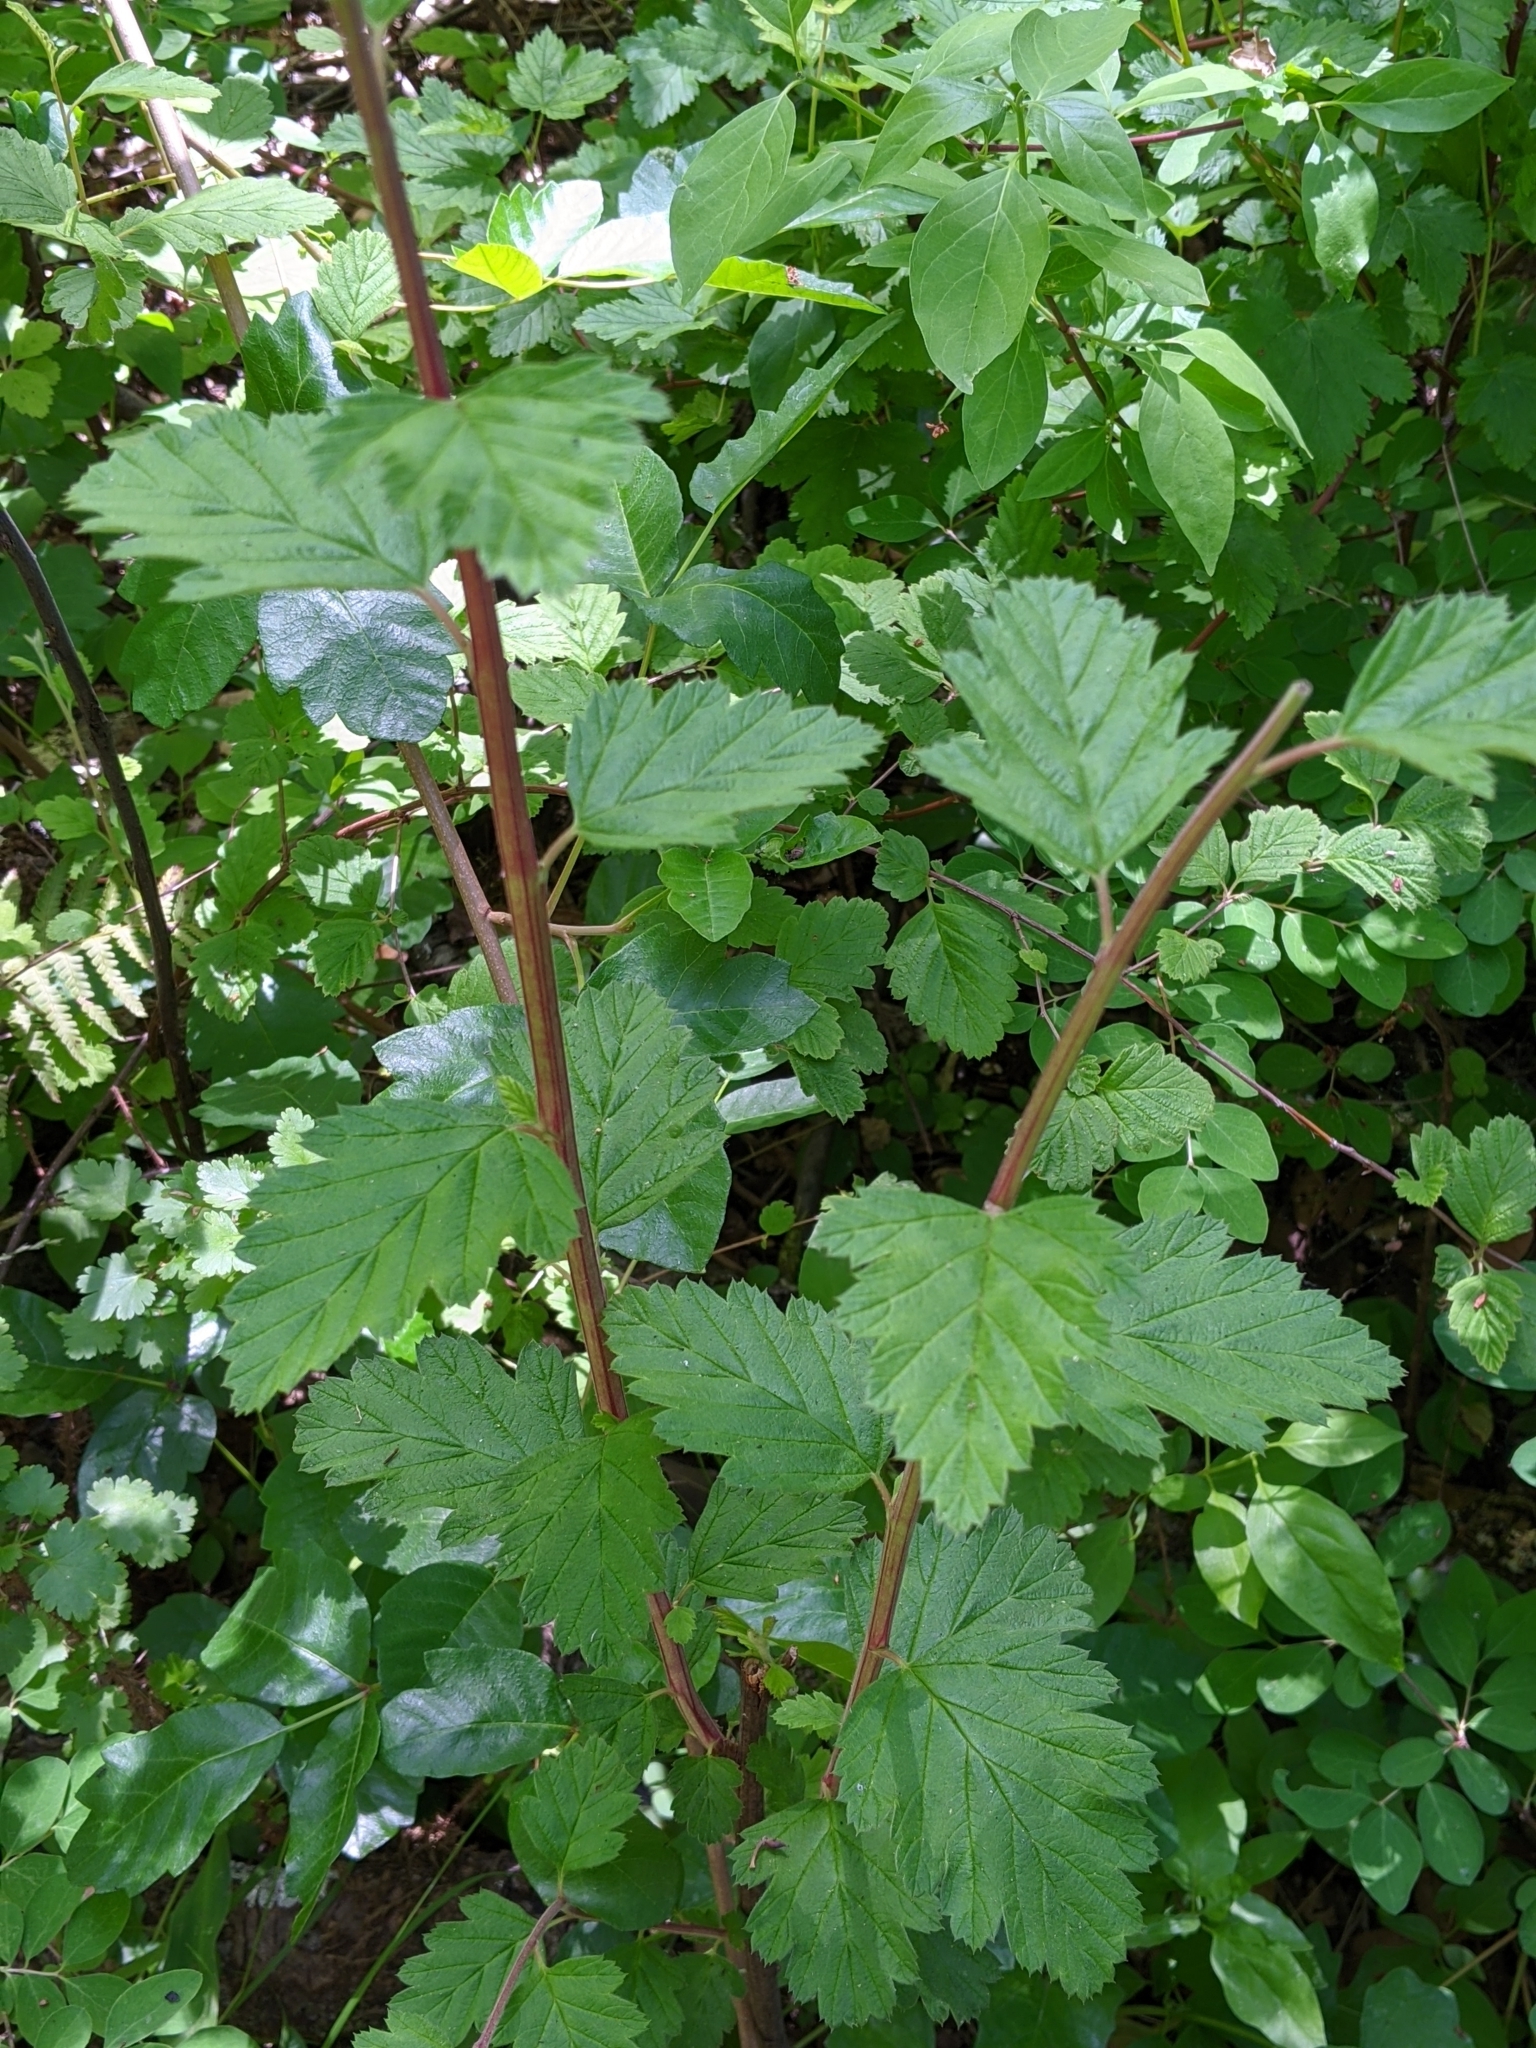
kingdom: Plantae
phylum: Tracheophyta
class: Magnoliopsida
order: Rosales
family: Rosaceae
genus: Physocarpus
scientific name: Physocarpus capitatus
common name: Pacific ninebark
